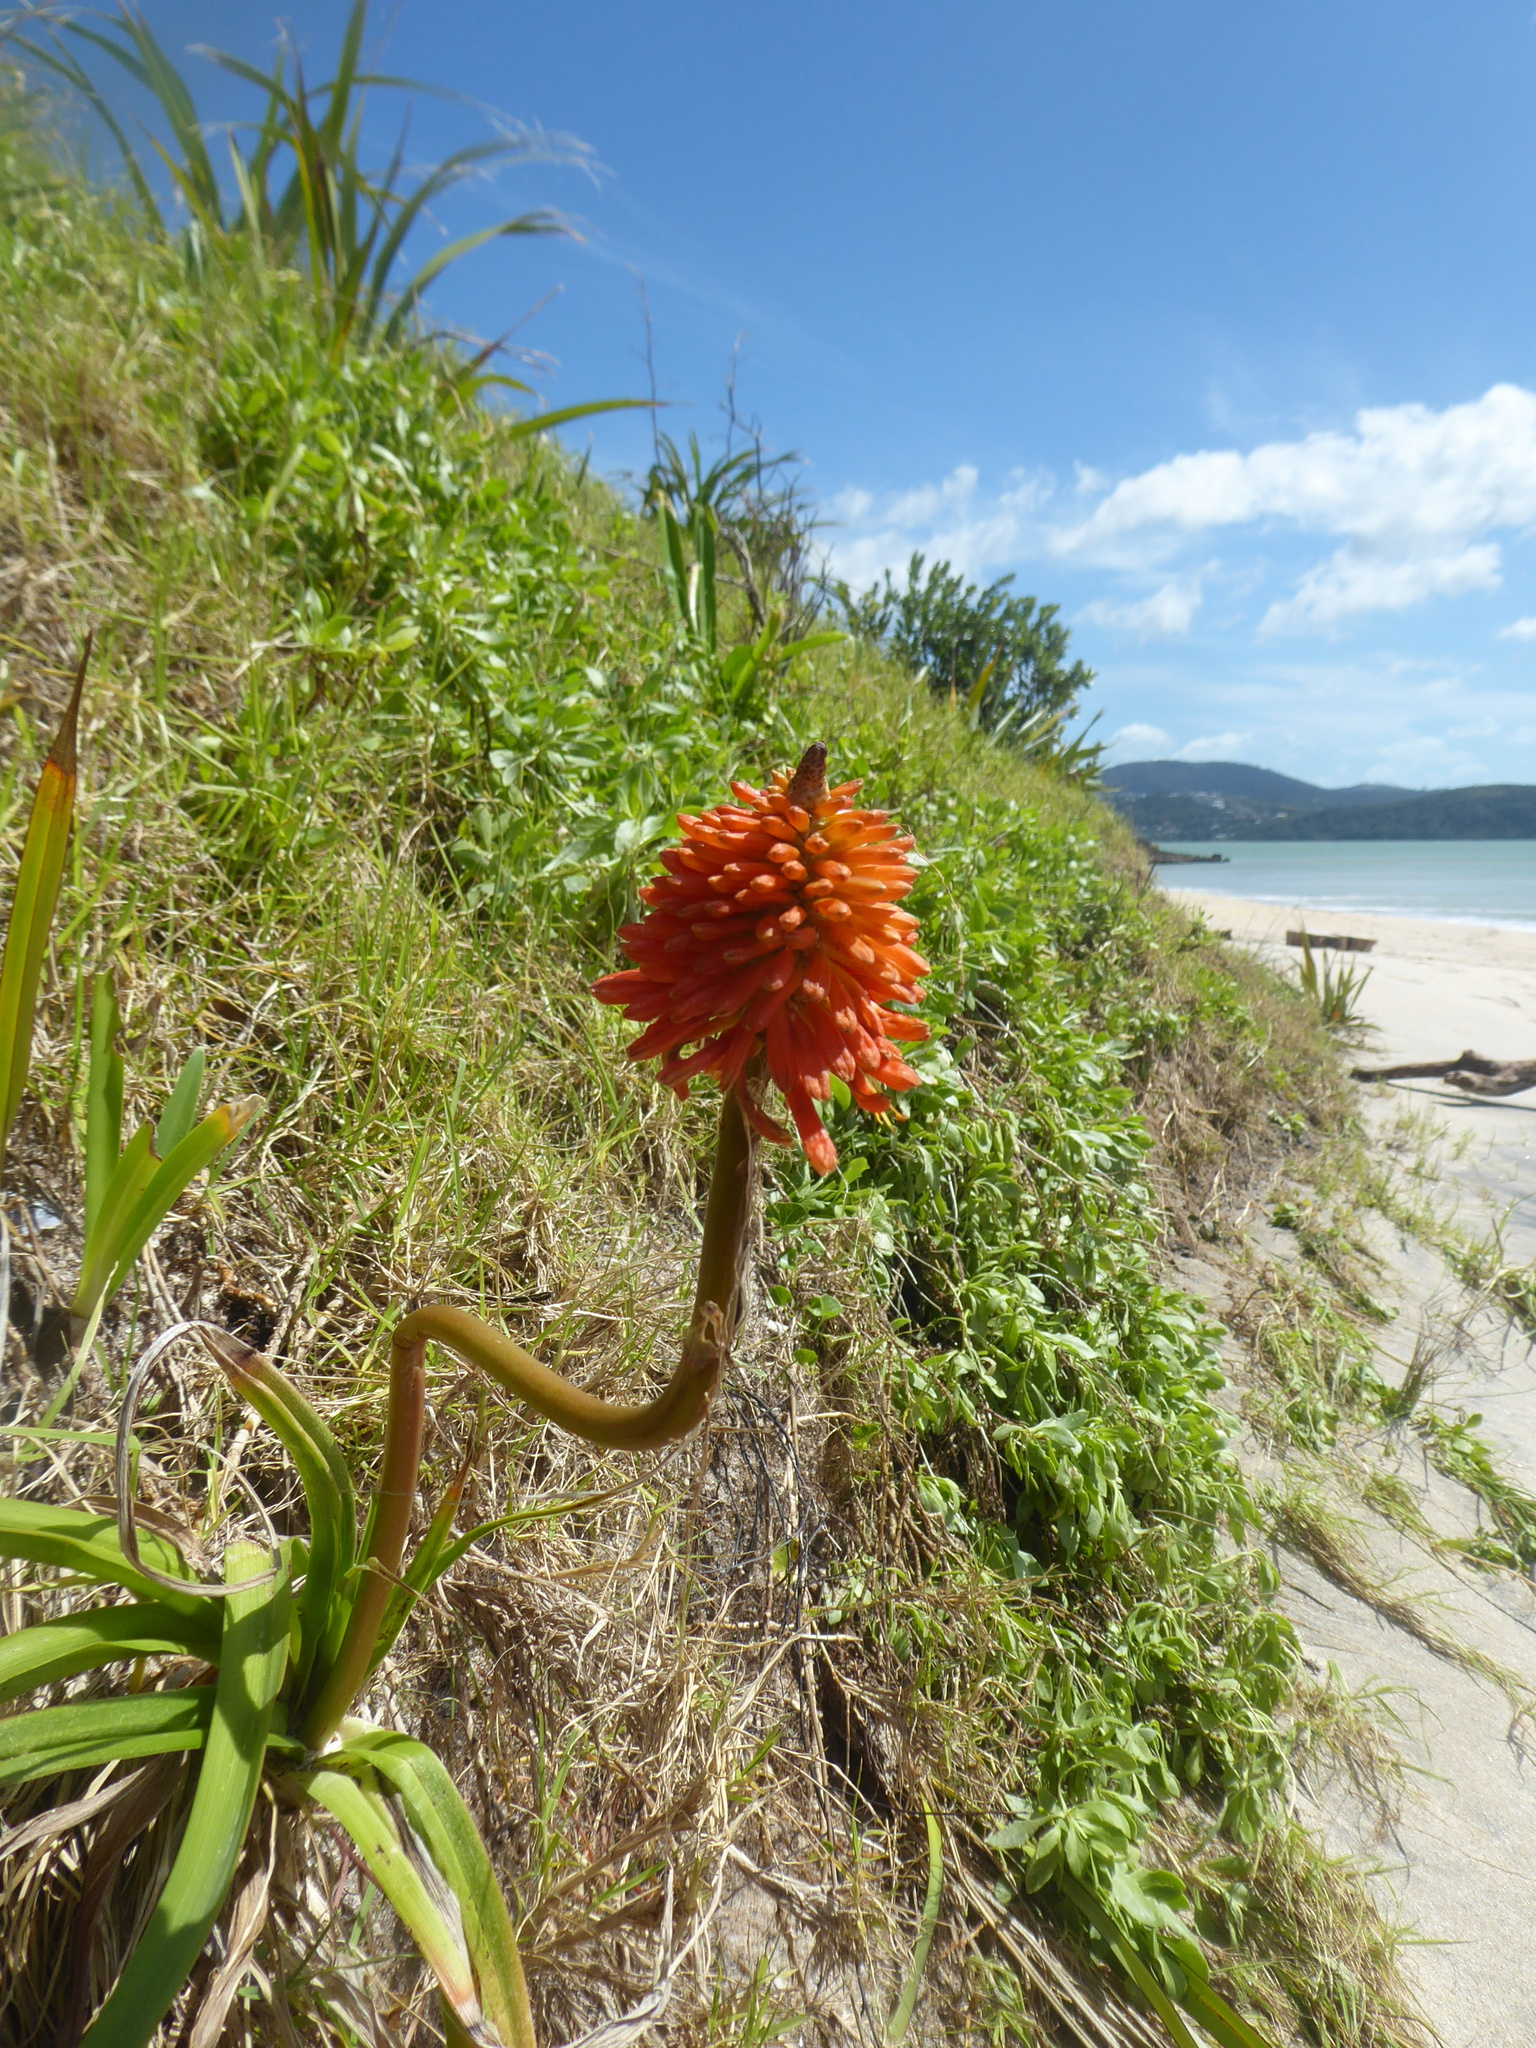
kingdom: Plantae
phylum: Tracheophyta
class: Liliopsida
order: Asparagales
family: Asphodelaceae
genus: Kniphofia
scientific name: Kniphofia uvaria
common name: Red-hot-poker
